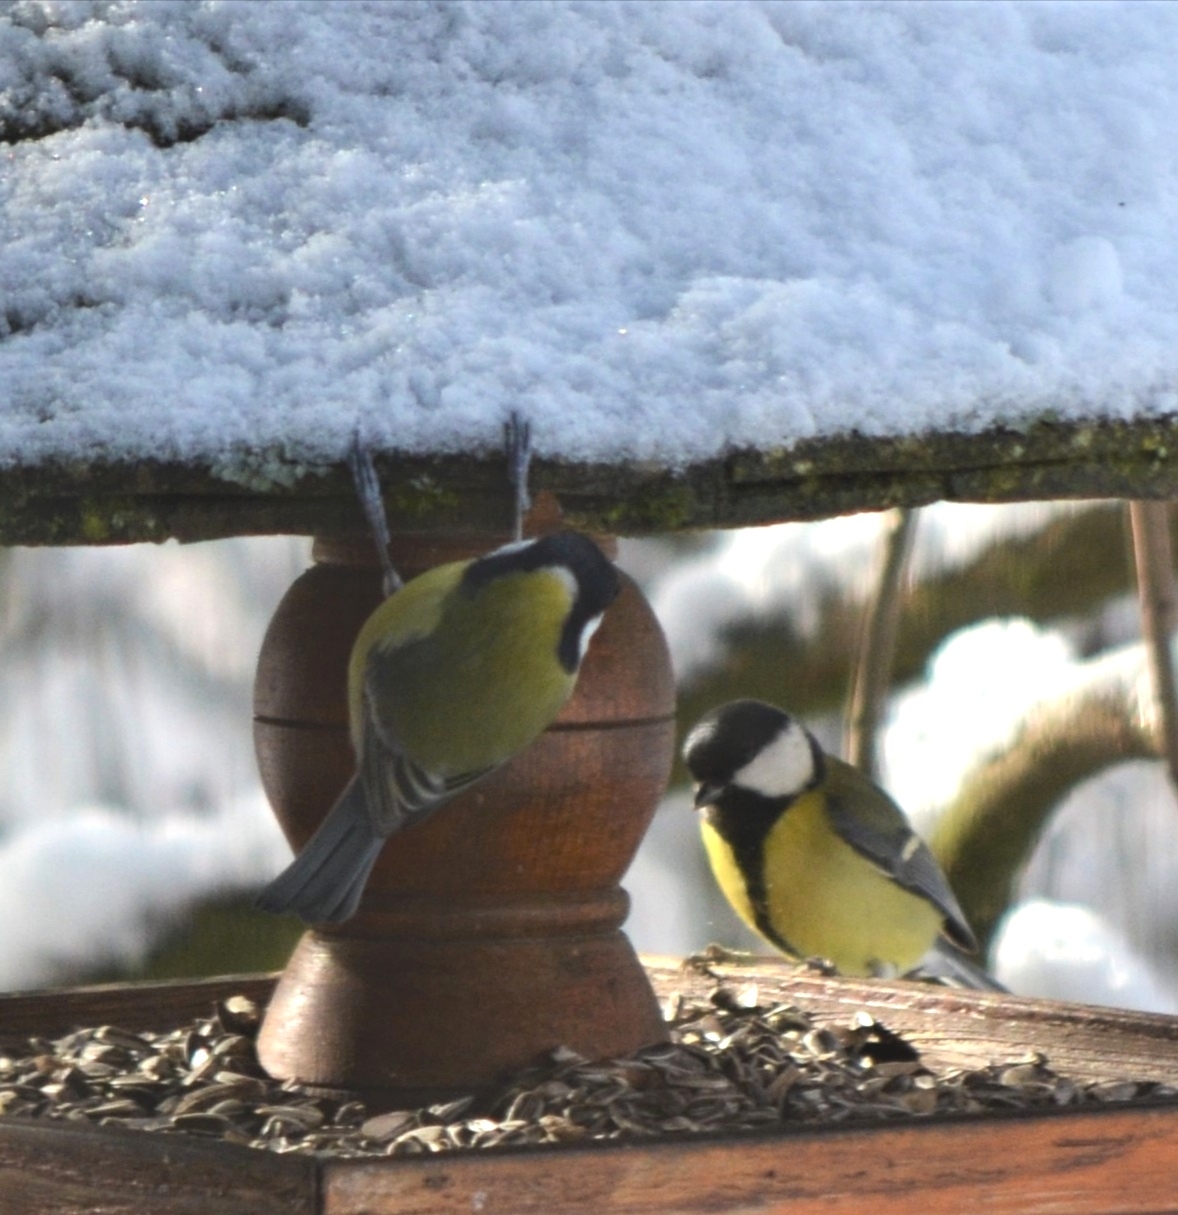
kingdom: Animalia
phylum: Chordata
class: Aves
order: Passeriformes
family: Paridae
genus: Parus
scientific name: Parus major
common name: Great tit
